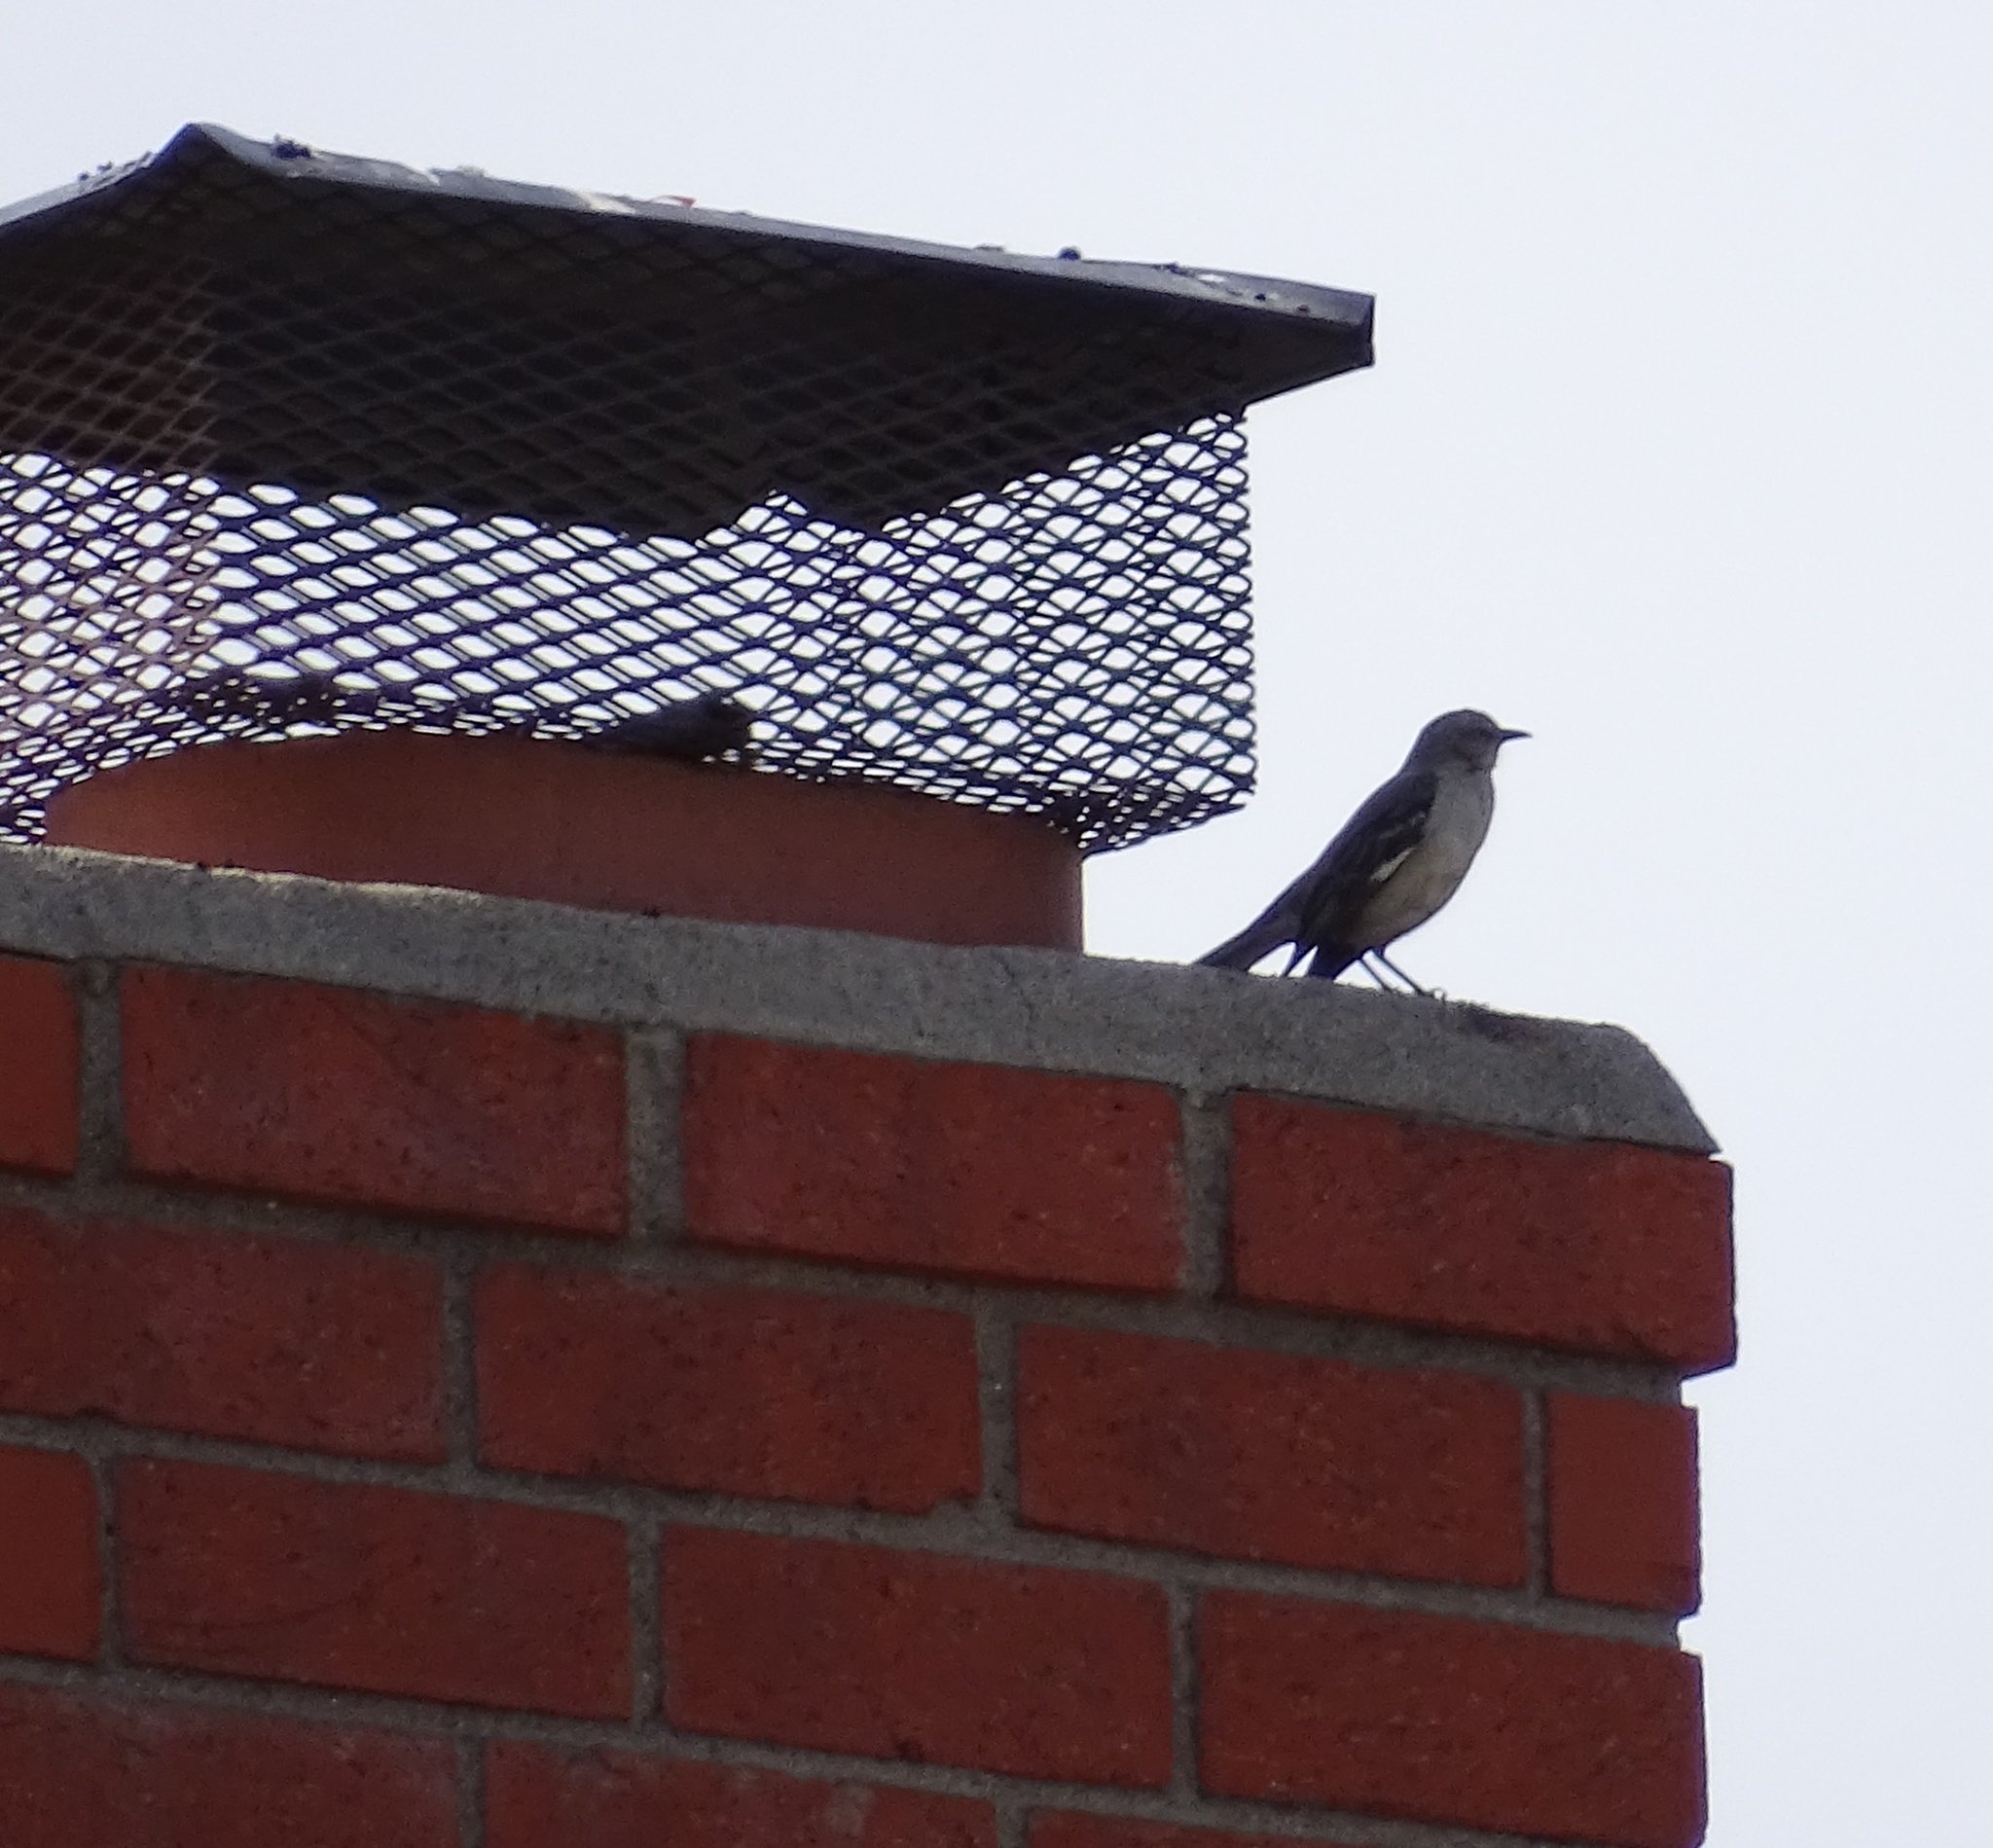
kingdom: Animalia
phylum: Chordata
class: Aves
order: Passeriformes
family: Mimidae
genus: Mimus
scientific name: Mimus polyglottos
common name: Northern mockingbird
